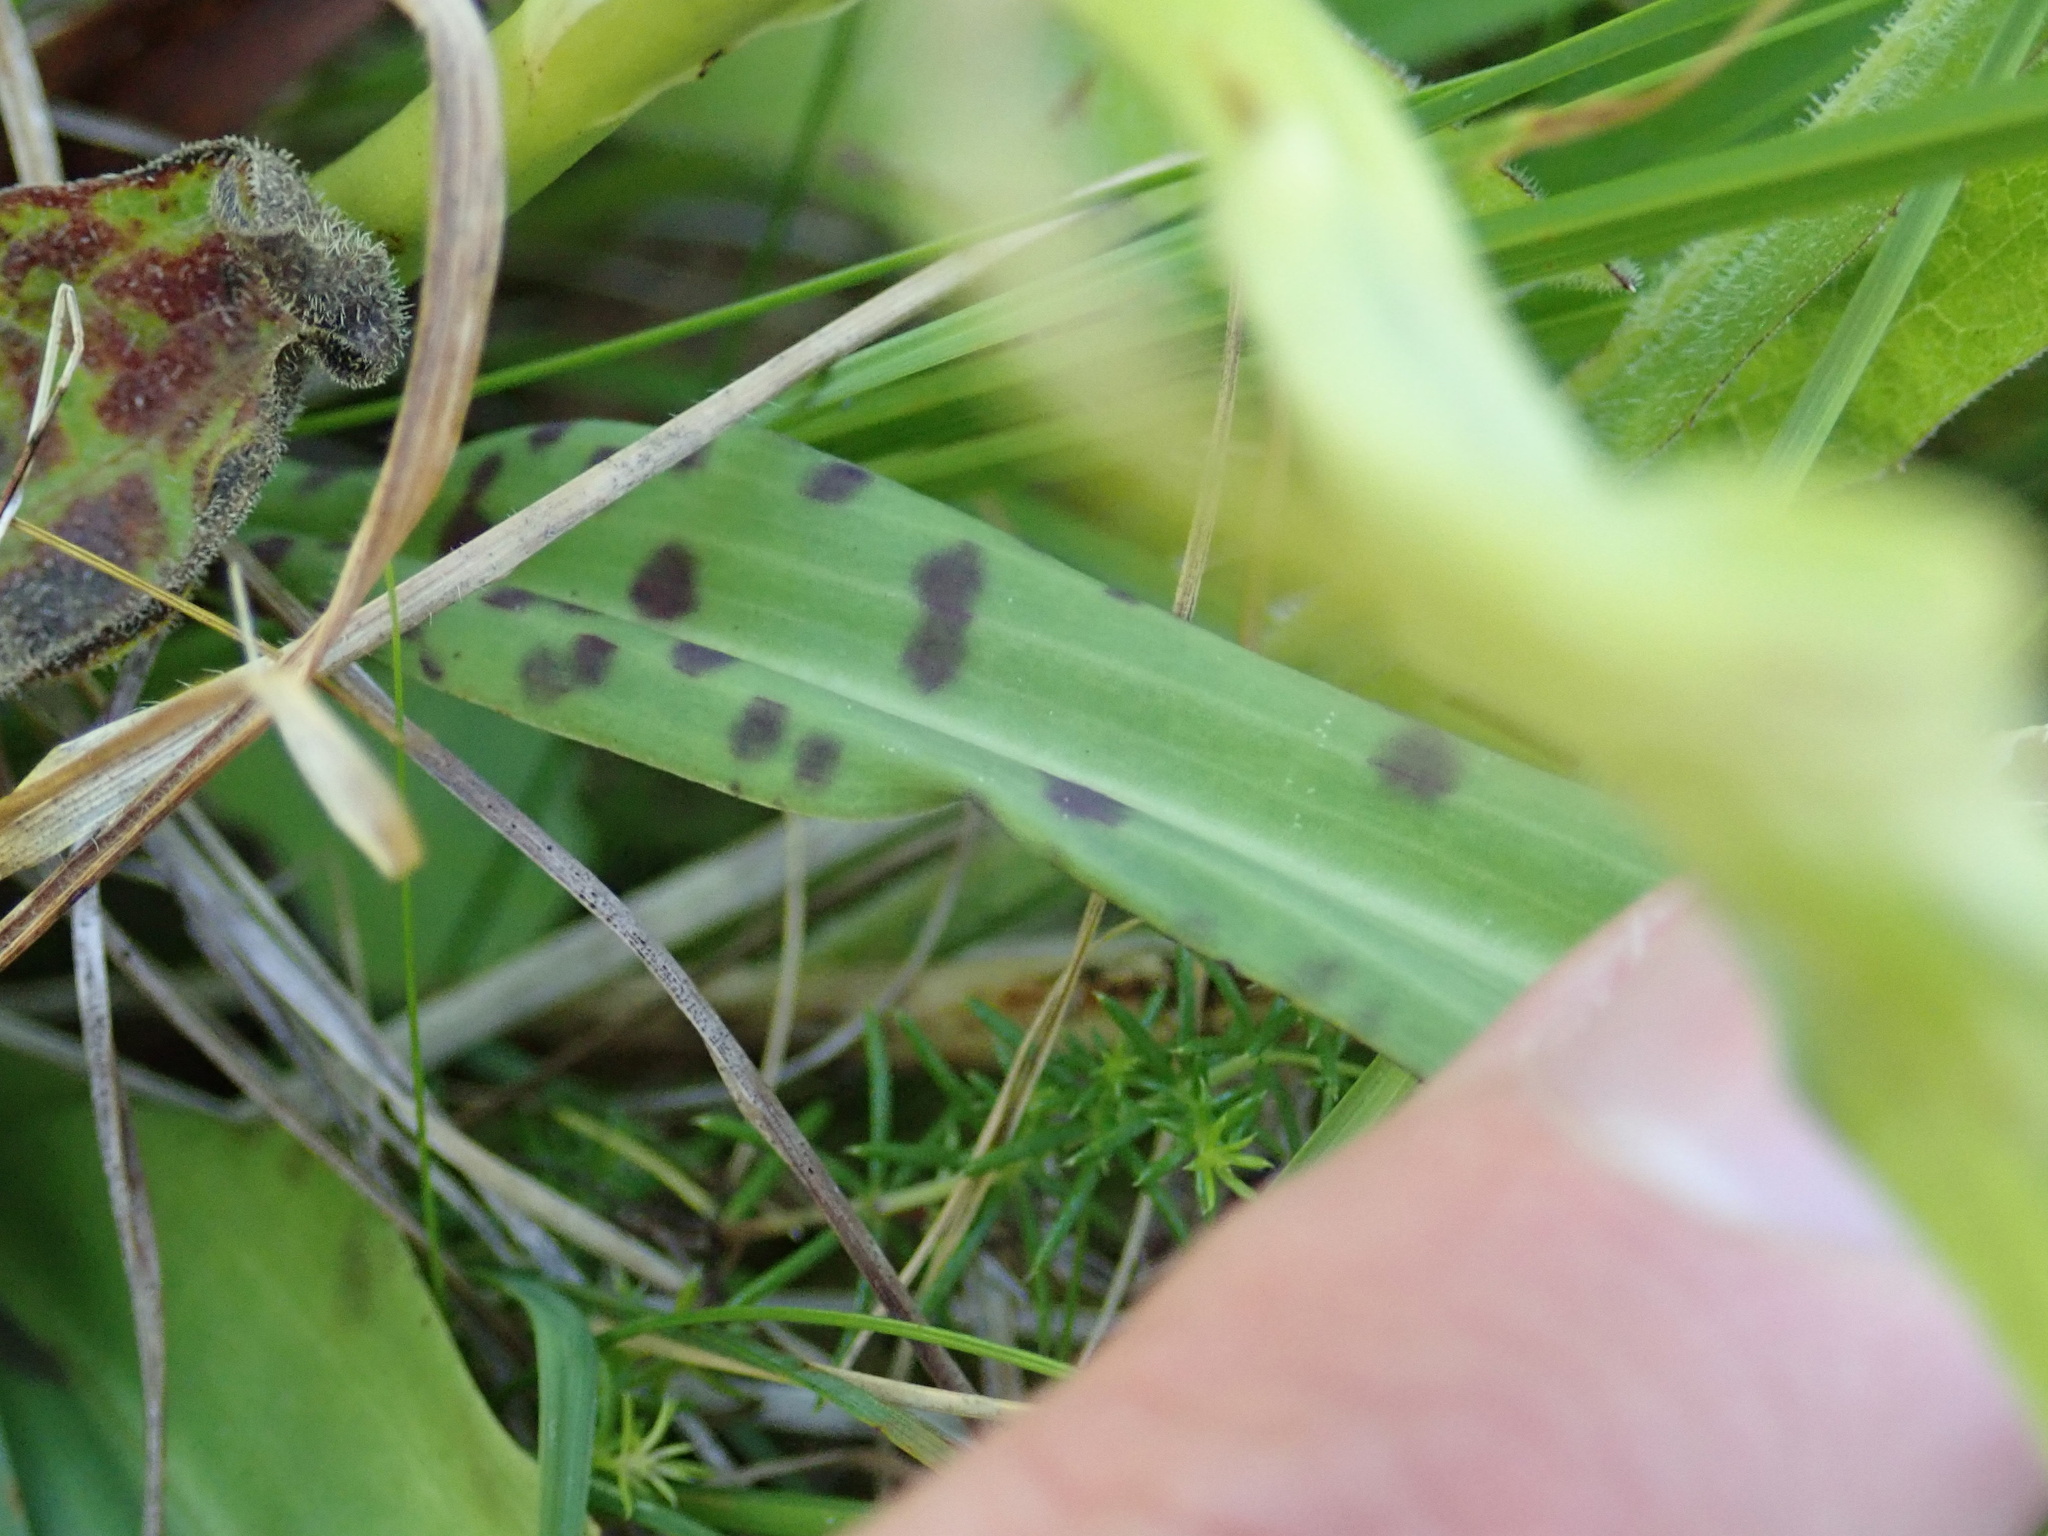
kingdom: Plantae
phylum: Tracheophyta
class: Liliopsida
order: Asparagales
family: Orchidaceae
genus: Dactylorhiza
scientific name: Dactylorhiza maculata
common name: Heath spotted-orchid
